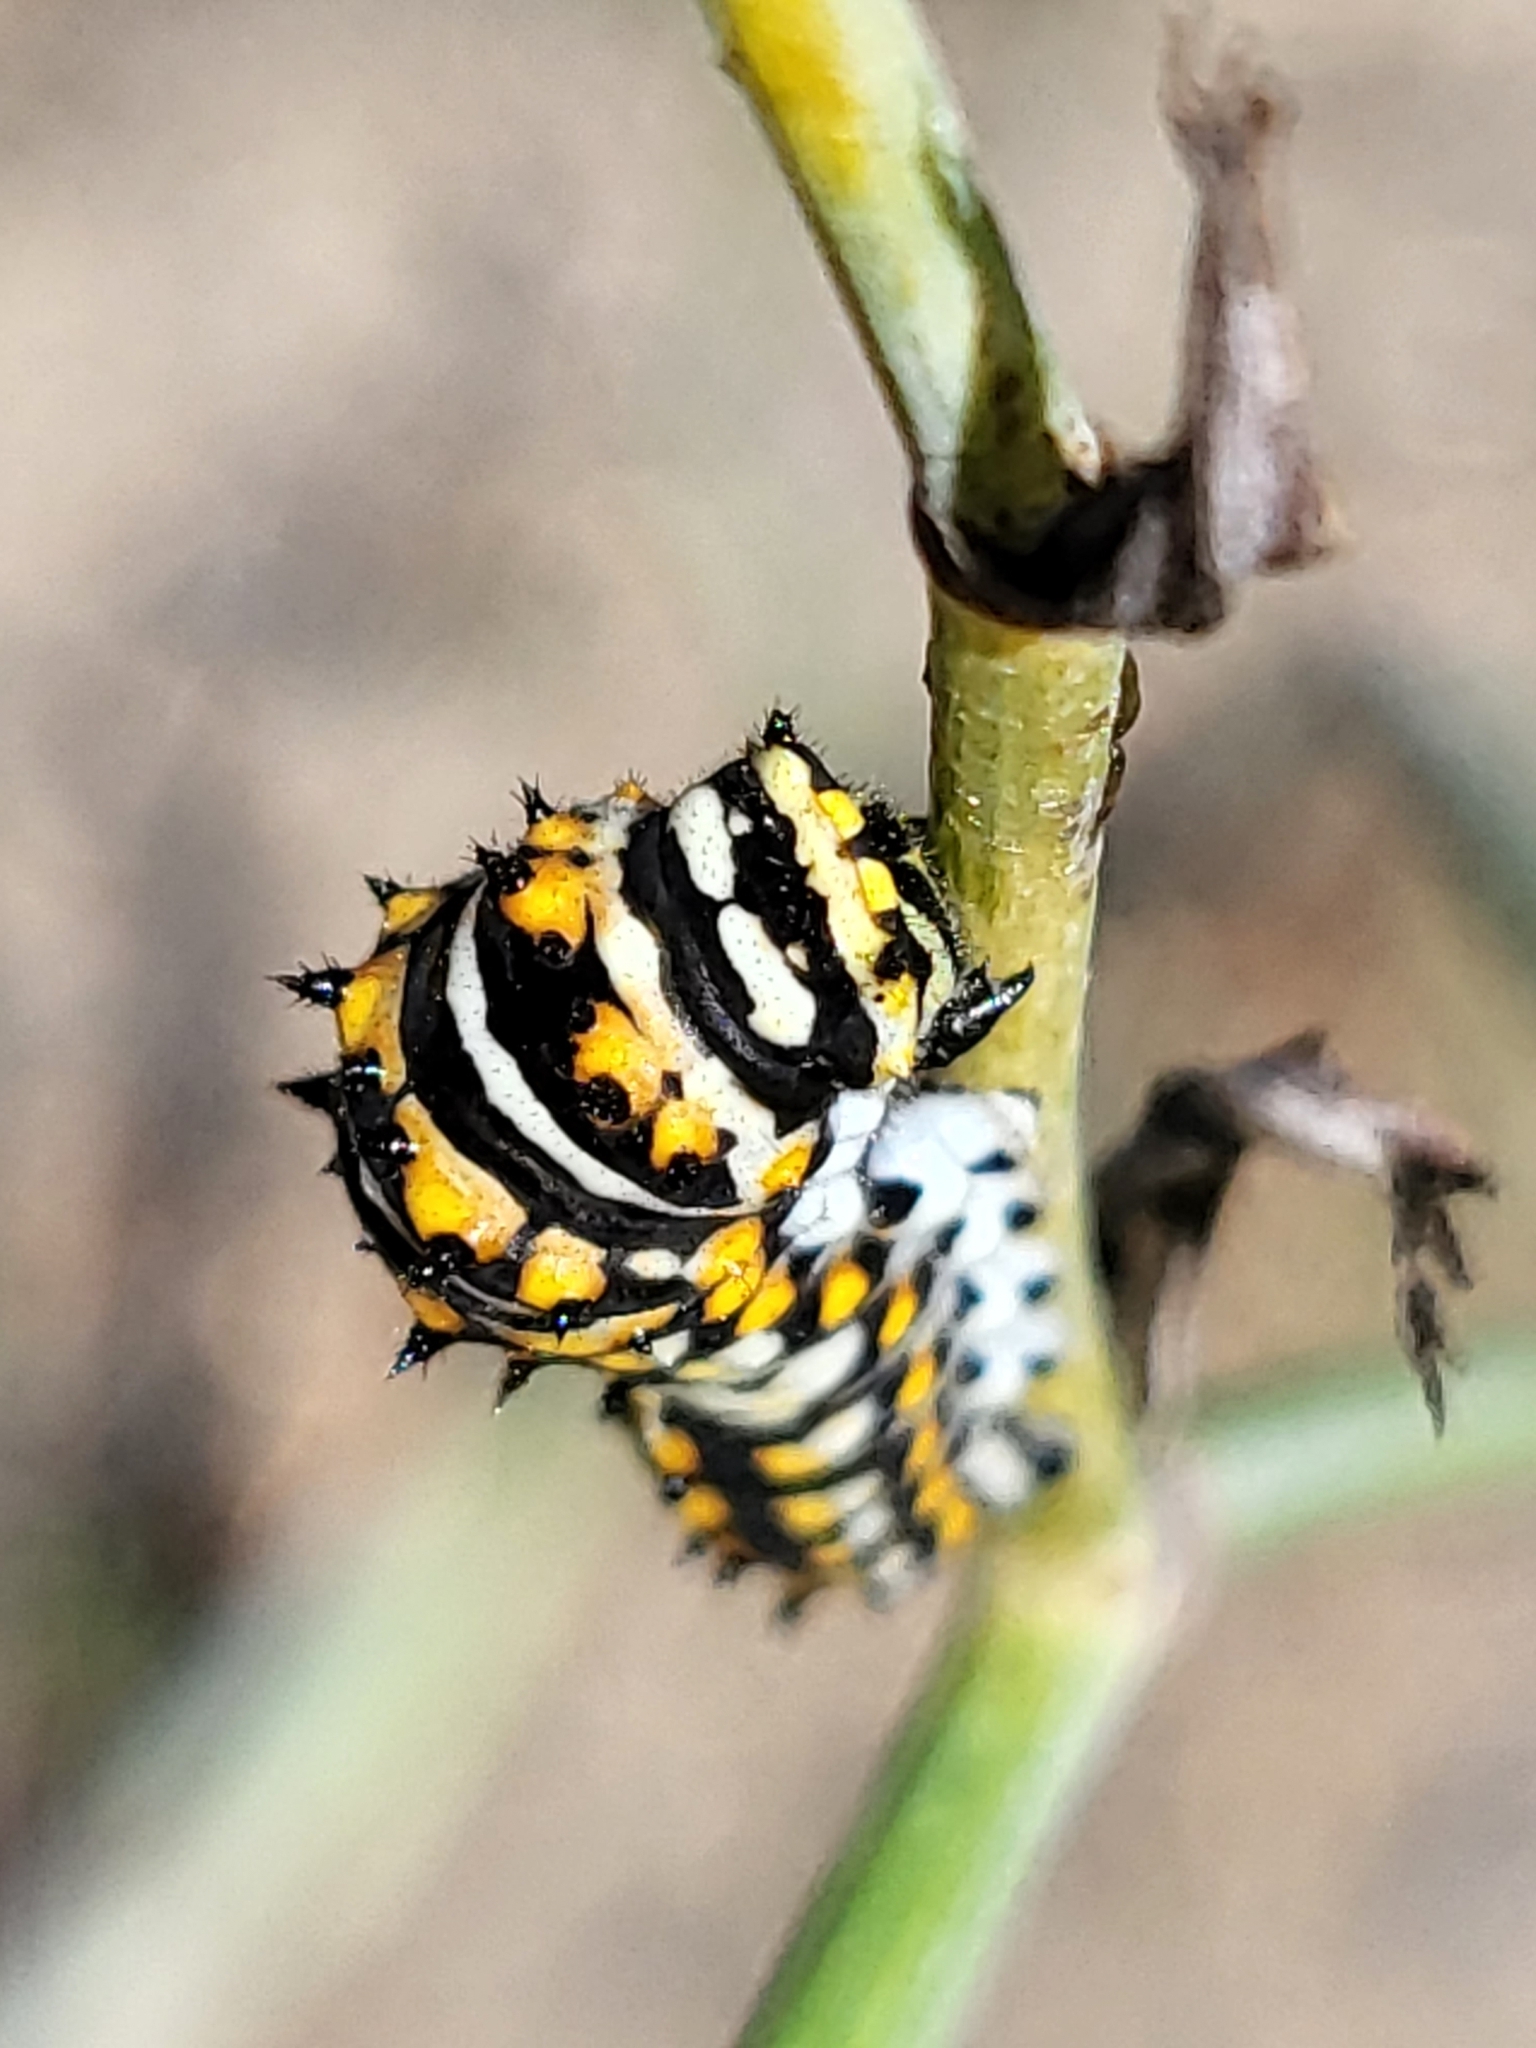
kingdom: Animalia
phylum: Arthropoda
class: Insecta
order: Lepidoptera
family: Papilionidae
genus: Papilio
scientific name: Papilio zelicaon
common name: Anise swallowtail
